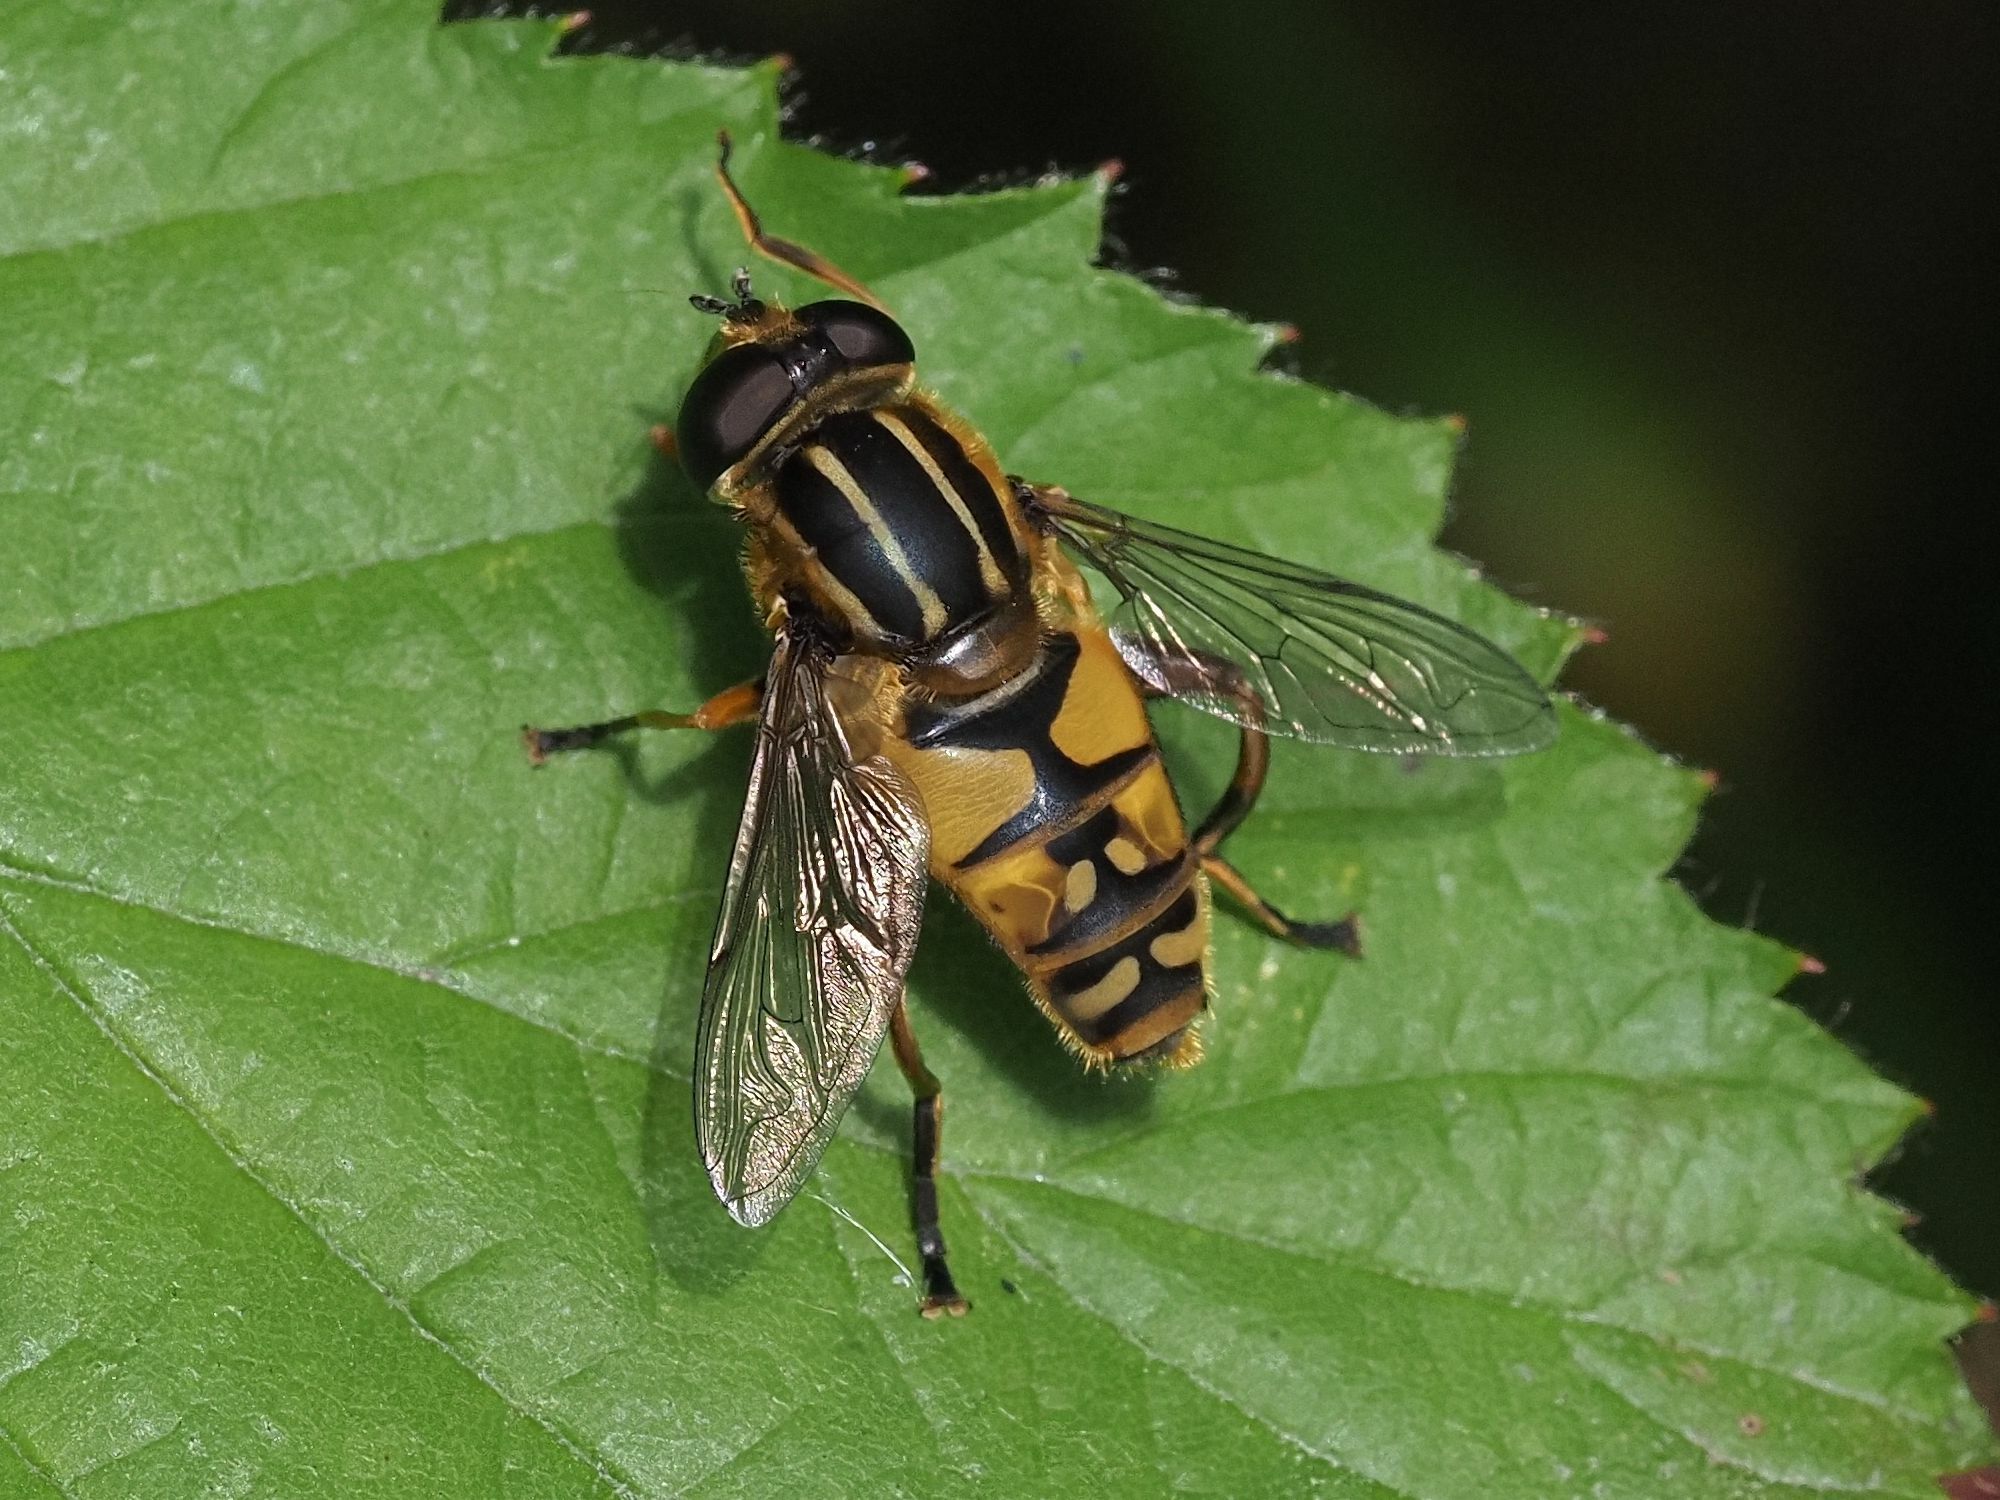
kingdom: Animalia
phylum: Arthropoda
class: Insecta
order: Diptera
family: Syrphidae
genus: Helophilus
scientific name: Helophilus pendulus
